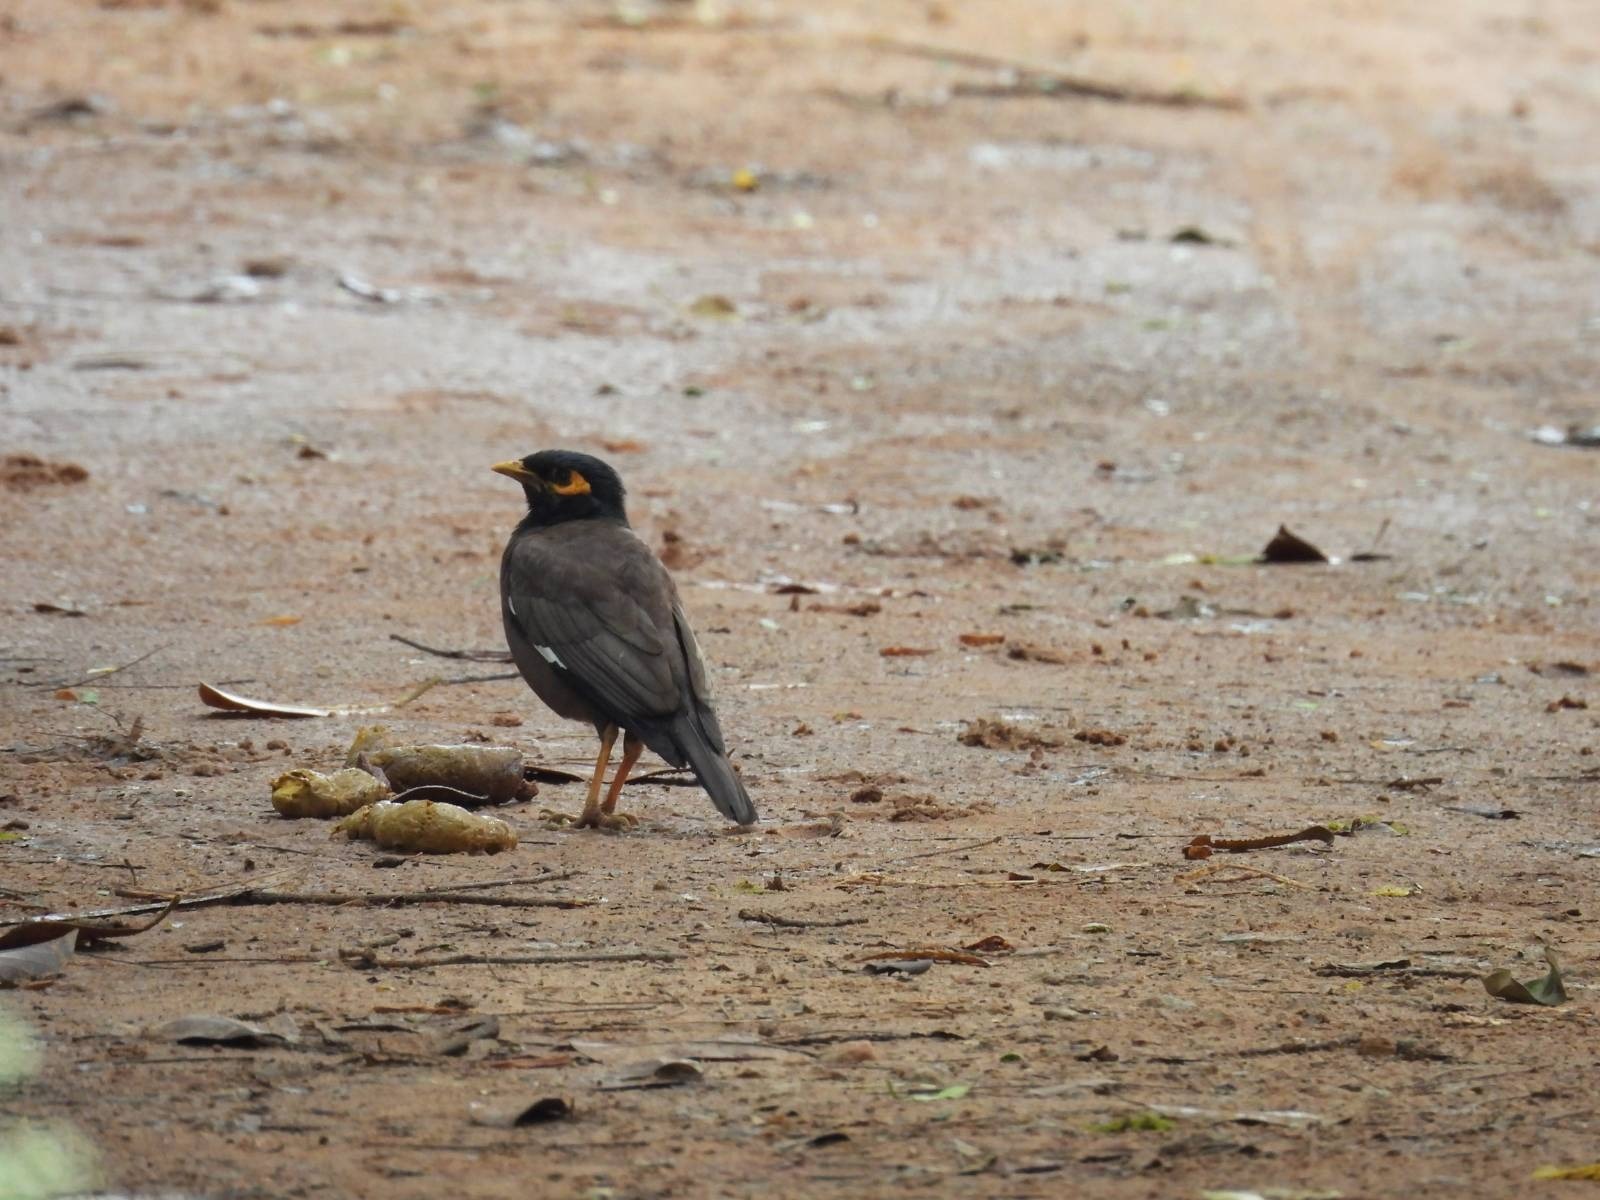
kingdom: Animalia
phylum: Chordata
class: Aves
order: Passeriformes
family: Sturnidae
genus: Acridotheres
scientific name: Acridotheres tristis
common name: Common myna
